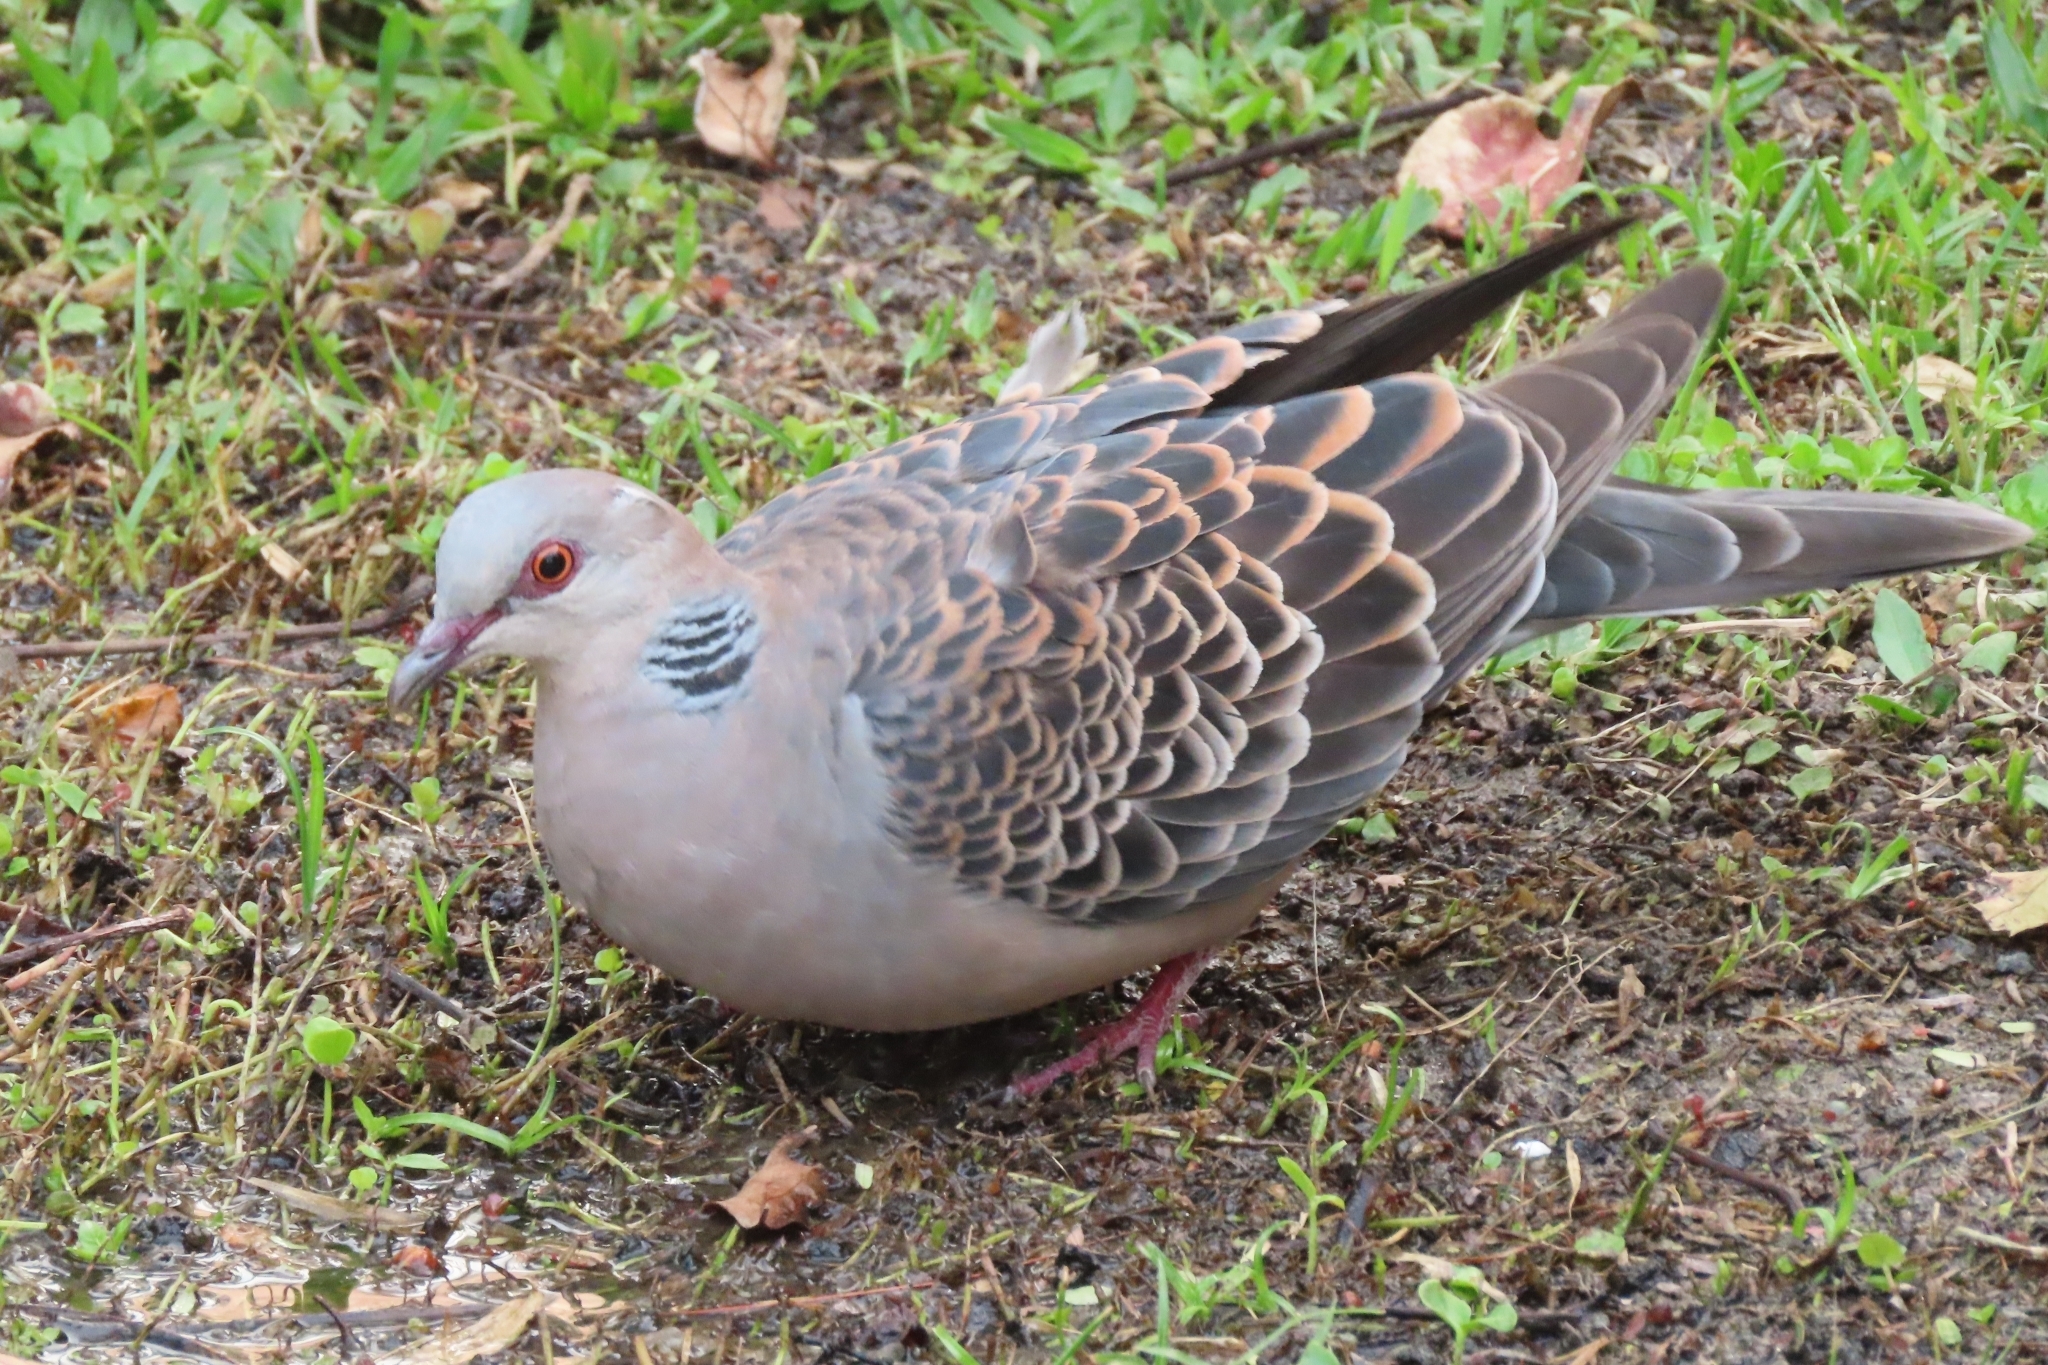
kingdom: Animalia
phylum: Chordata
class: Aves
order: Columbiformes
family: Columbidae
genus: Streptopelia
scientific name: Streptopelia orientalis
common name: Oriental turtle dove
